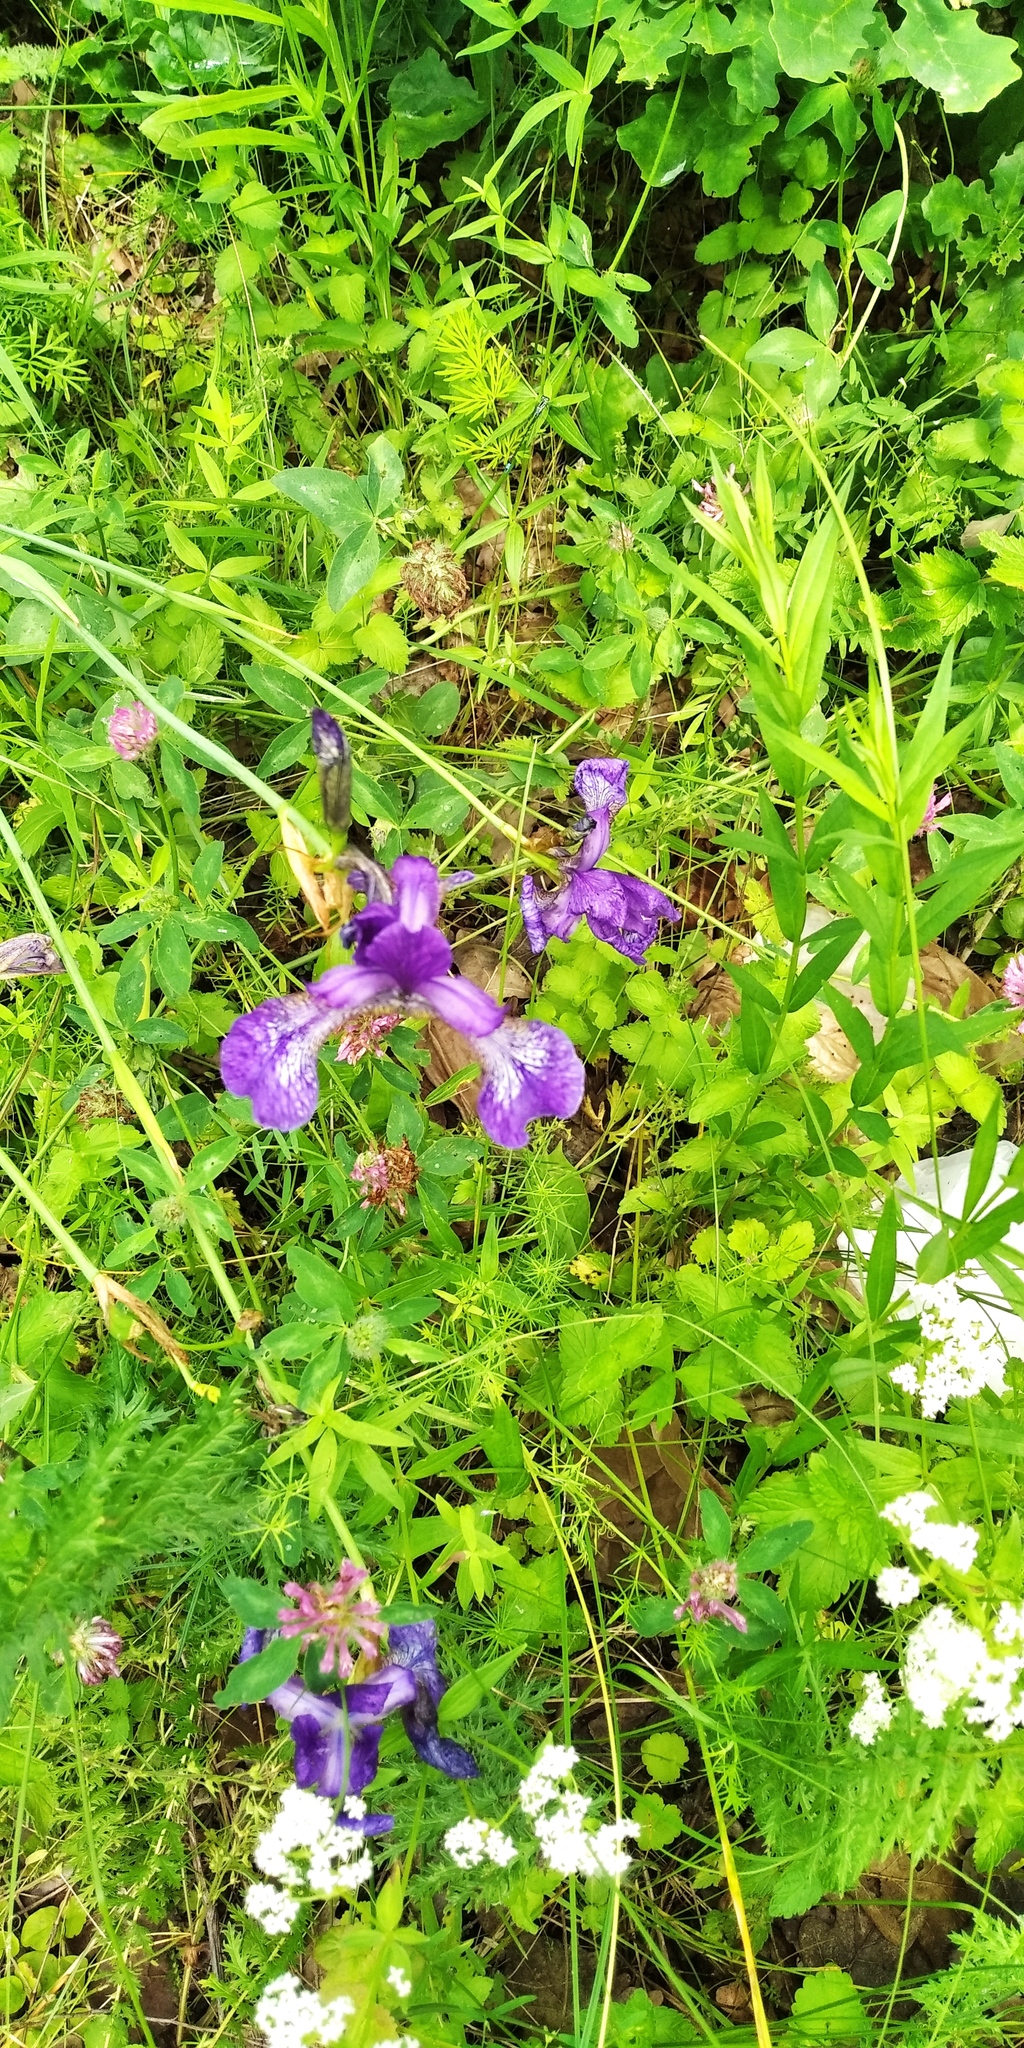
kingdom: Plantae
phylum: Tracheophyta
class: Liliopsida
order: Asparagales
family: Iridaceae
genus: Iris
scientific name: Iris sibirica
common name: Siberian iris
